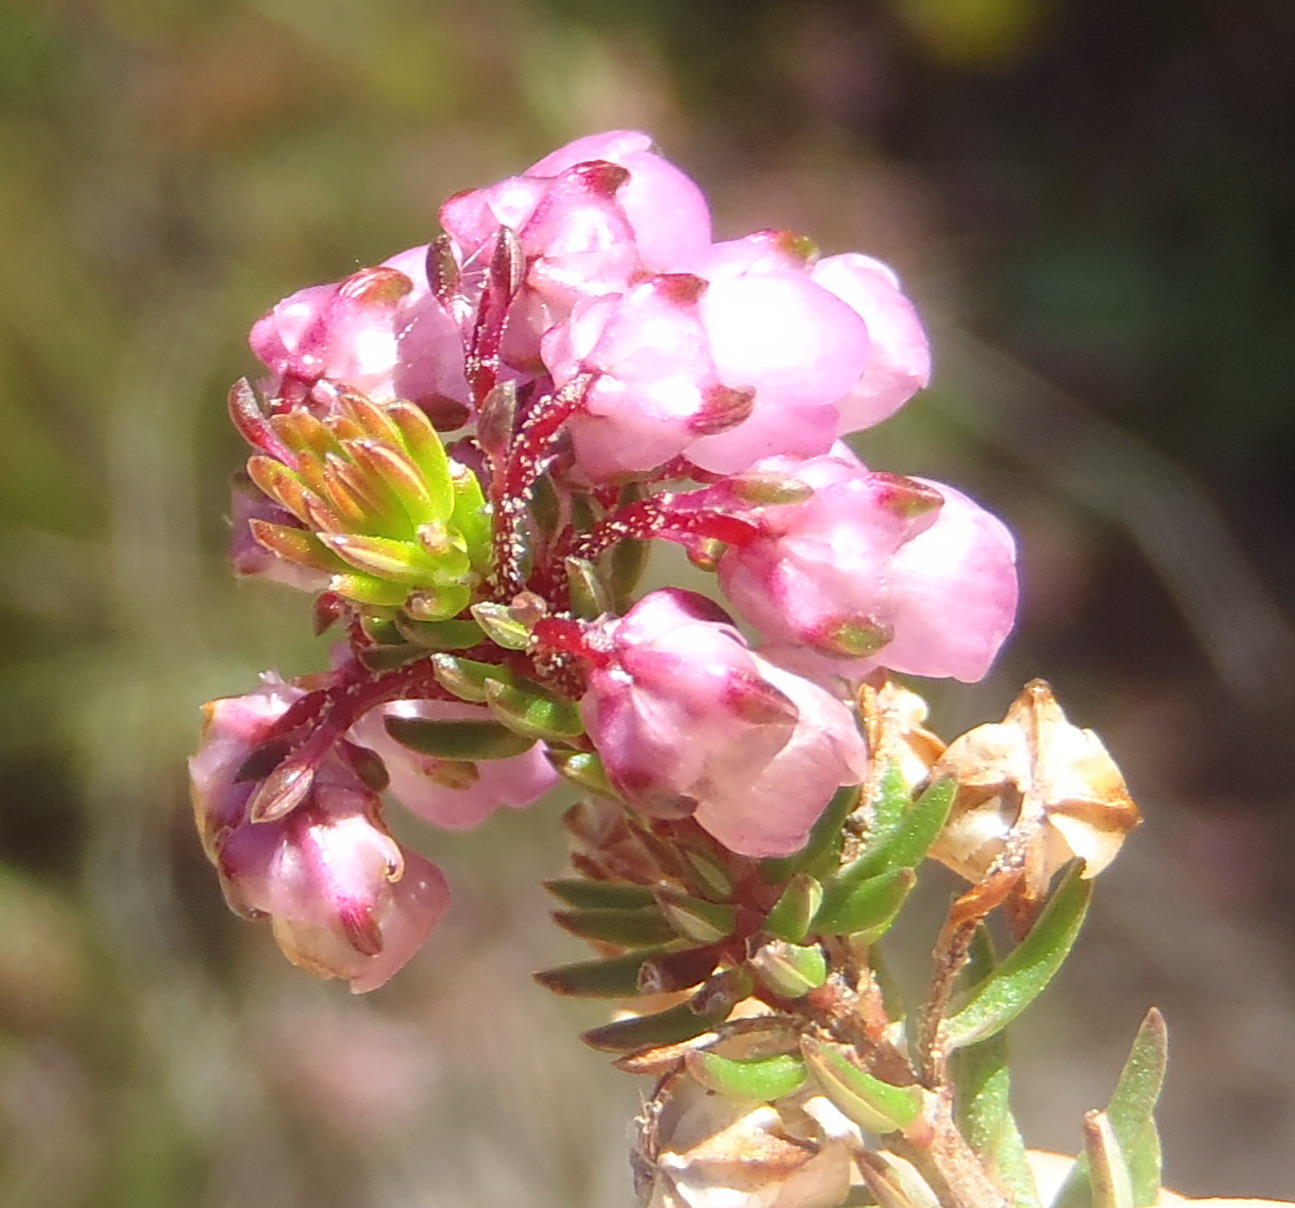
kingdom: Plantae
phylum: Tracheophyta
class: Magnoliopsida
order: Ericales
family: Ericaceae
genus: Erica
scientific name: Erica cubica
